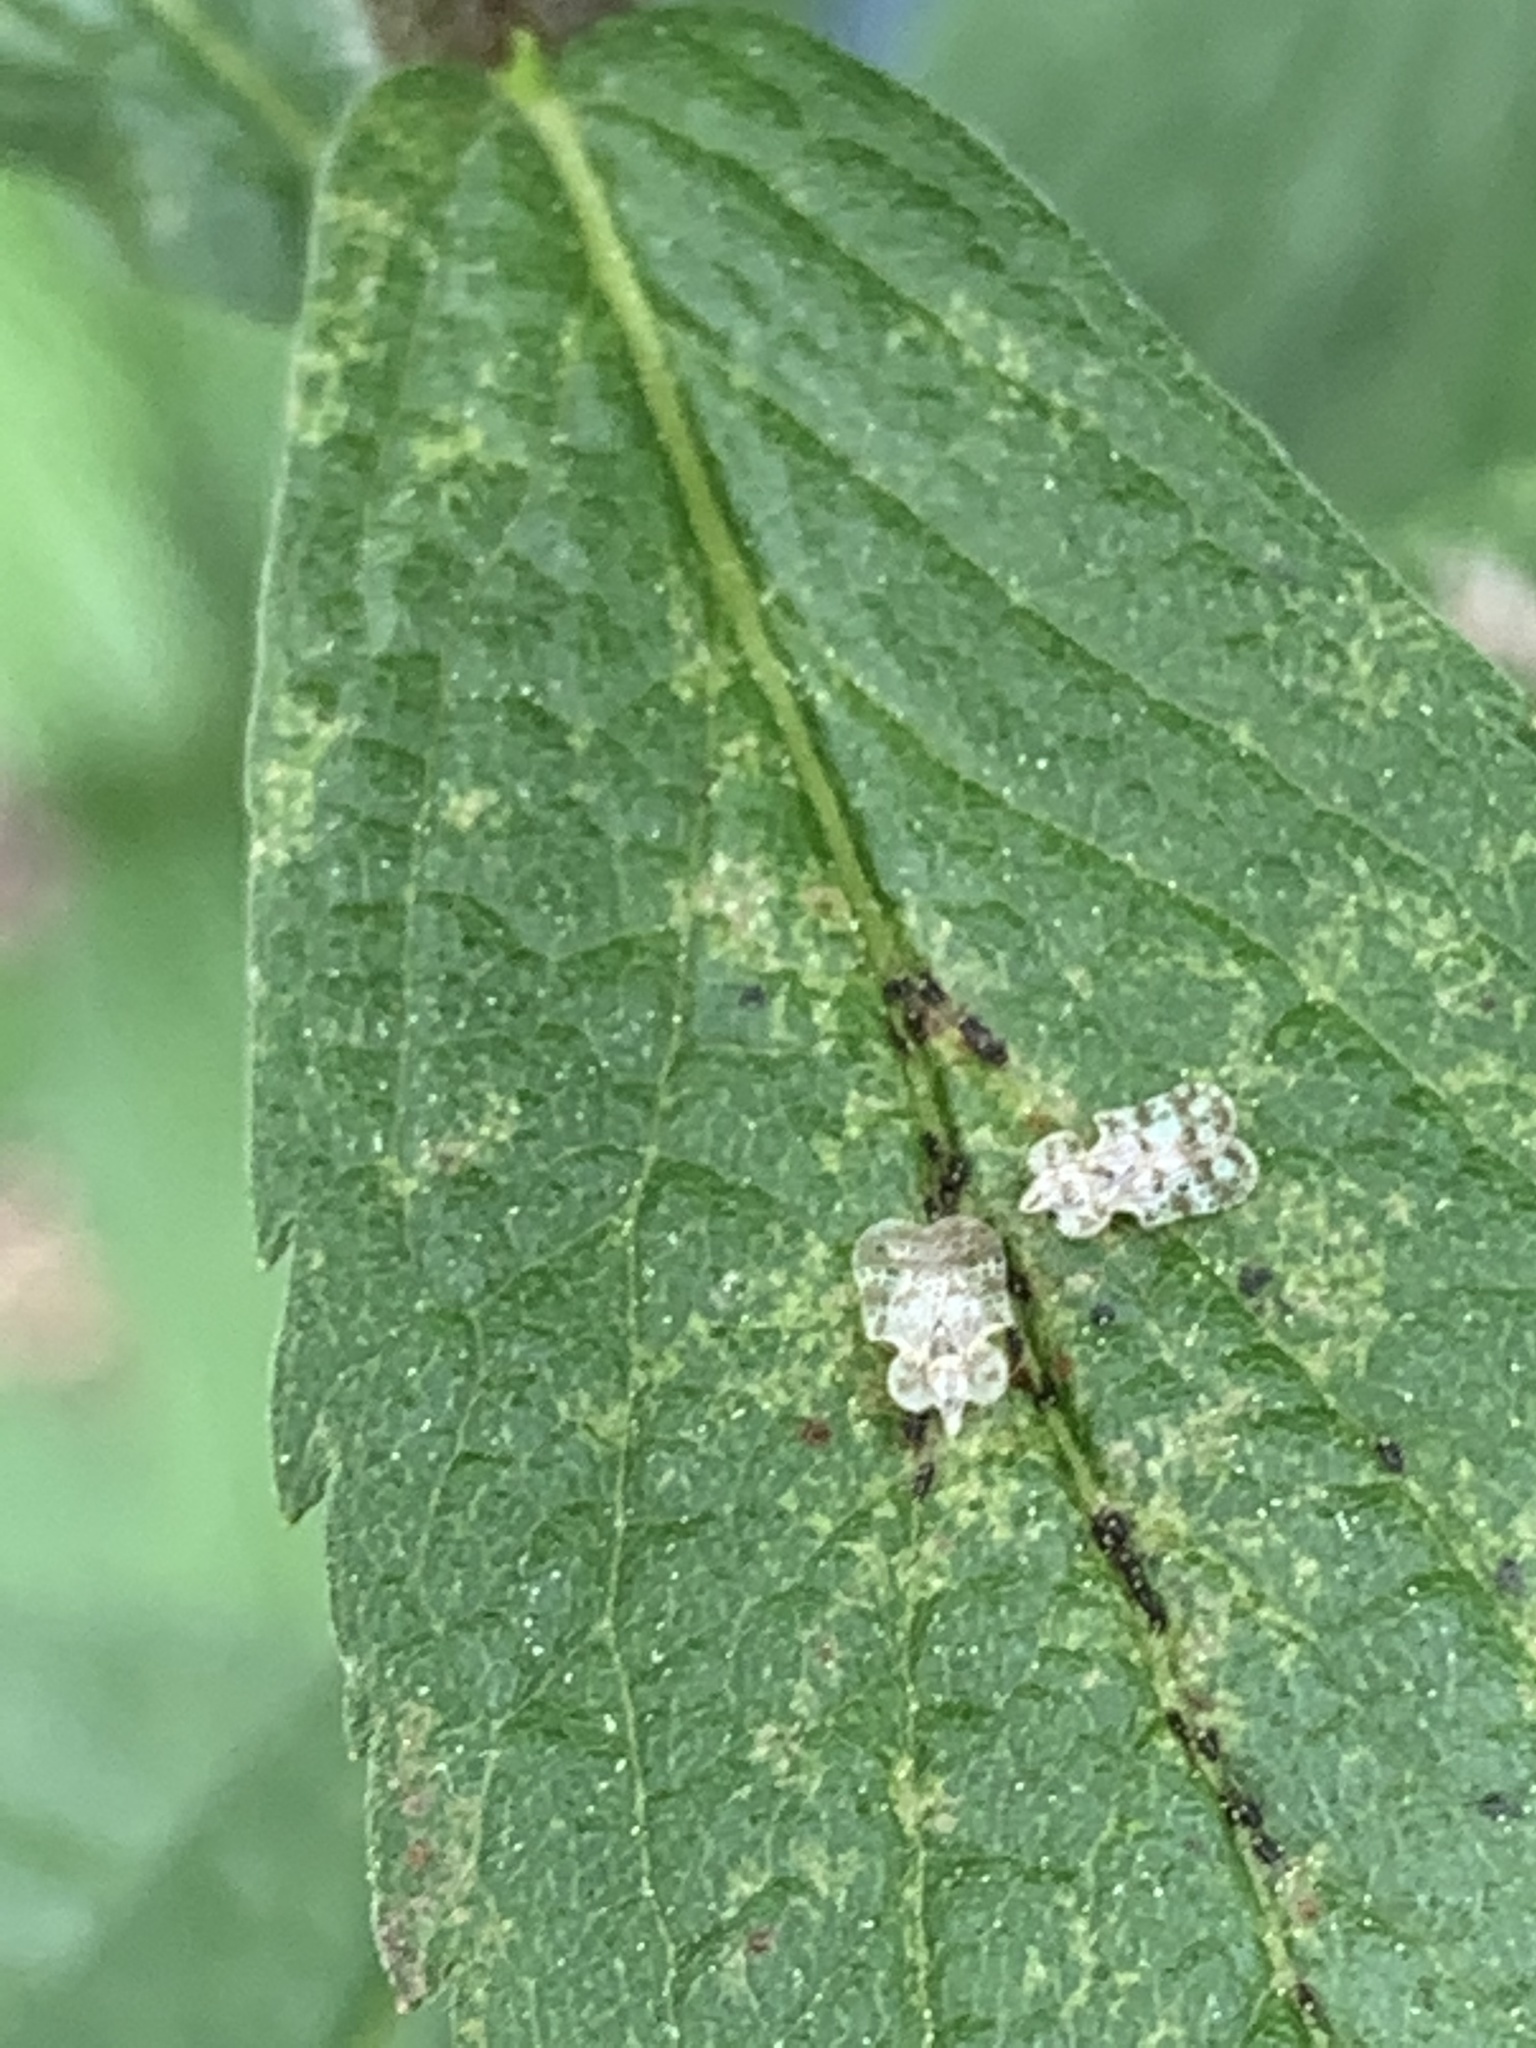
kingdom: Animalia
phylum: Arthropoda
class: Insecta
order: Hemiptera
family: Tingidae
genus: Corythucha
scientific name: Corythucha marmorata
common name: Chrysanthemum lace bug
